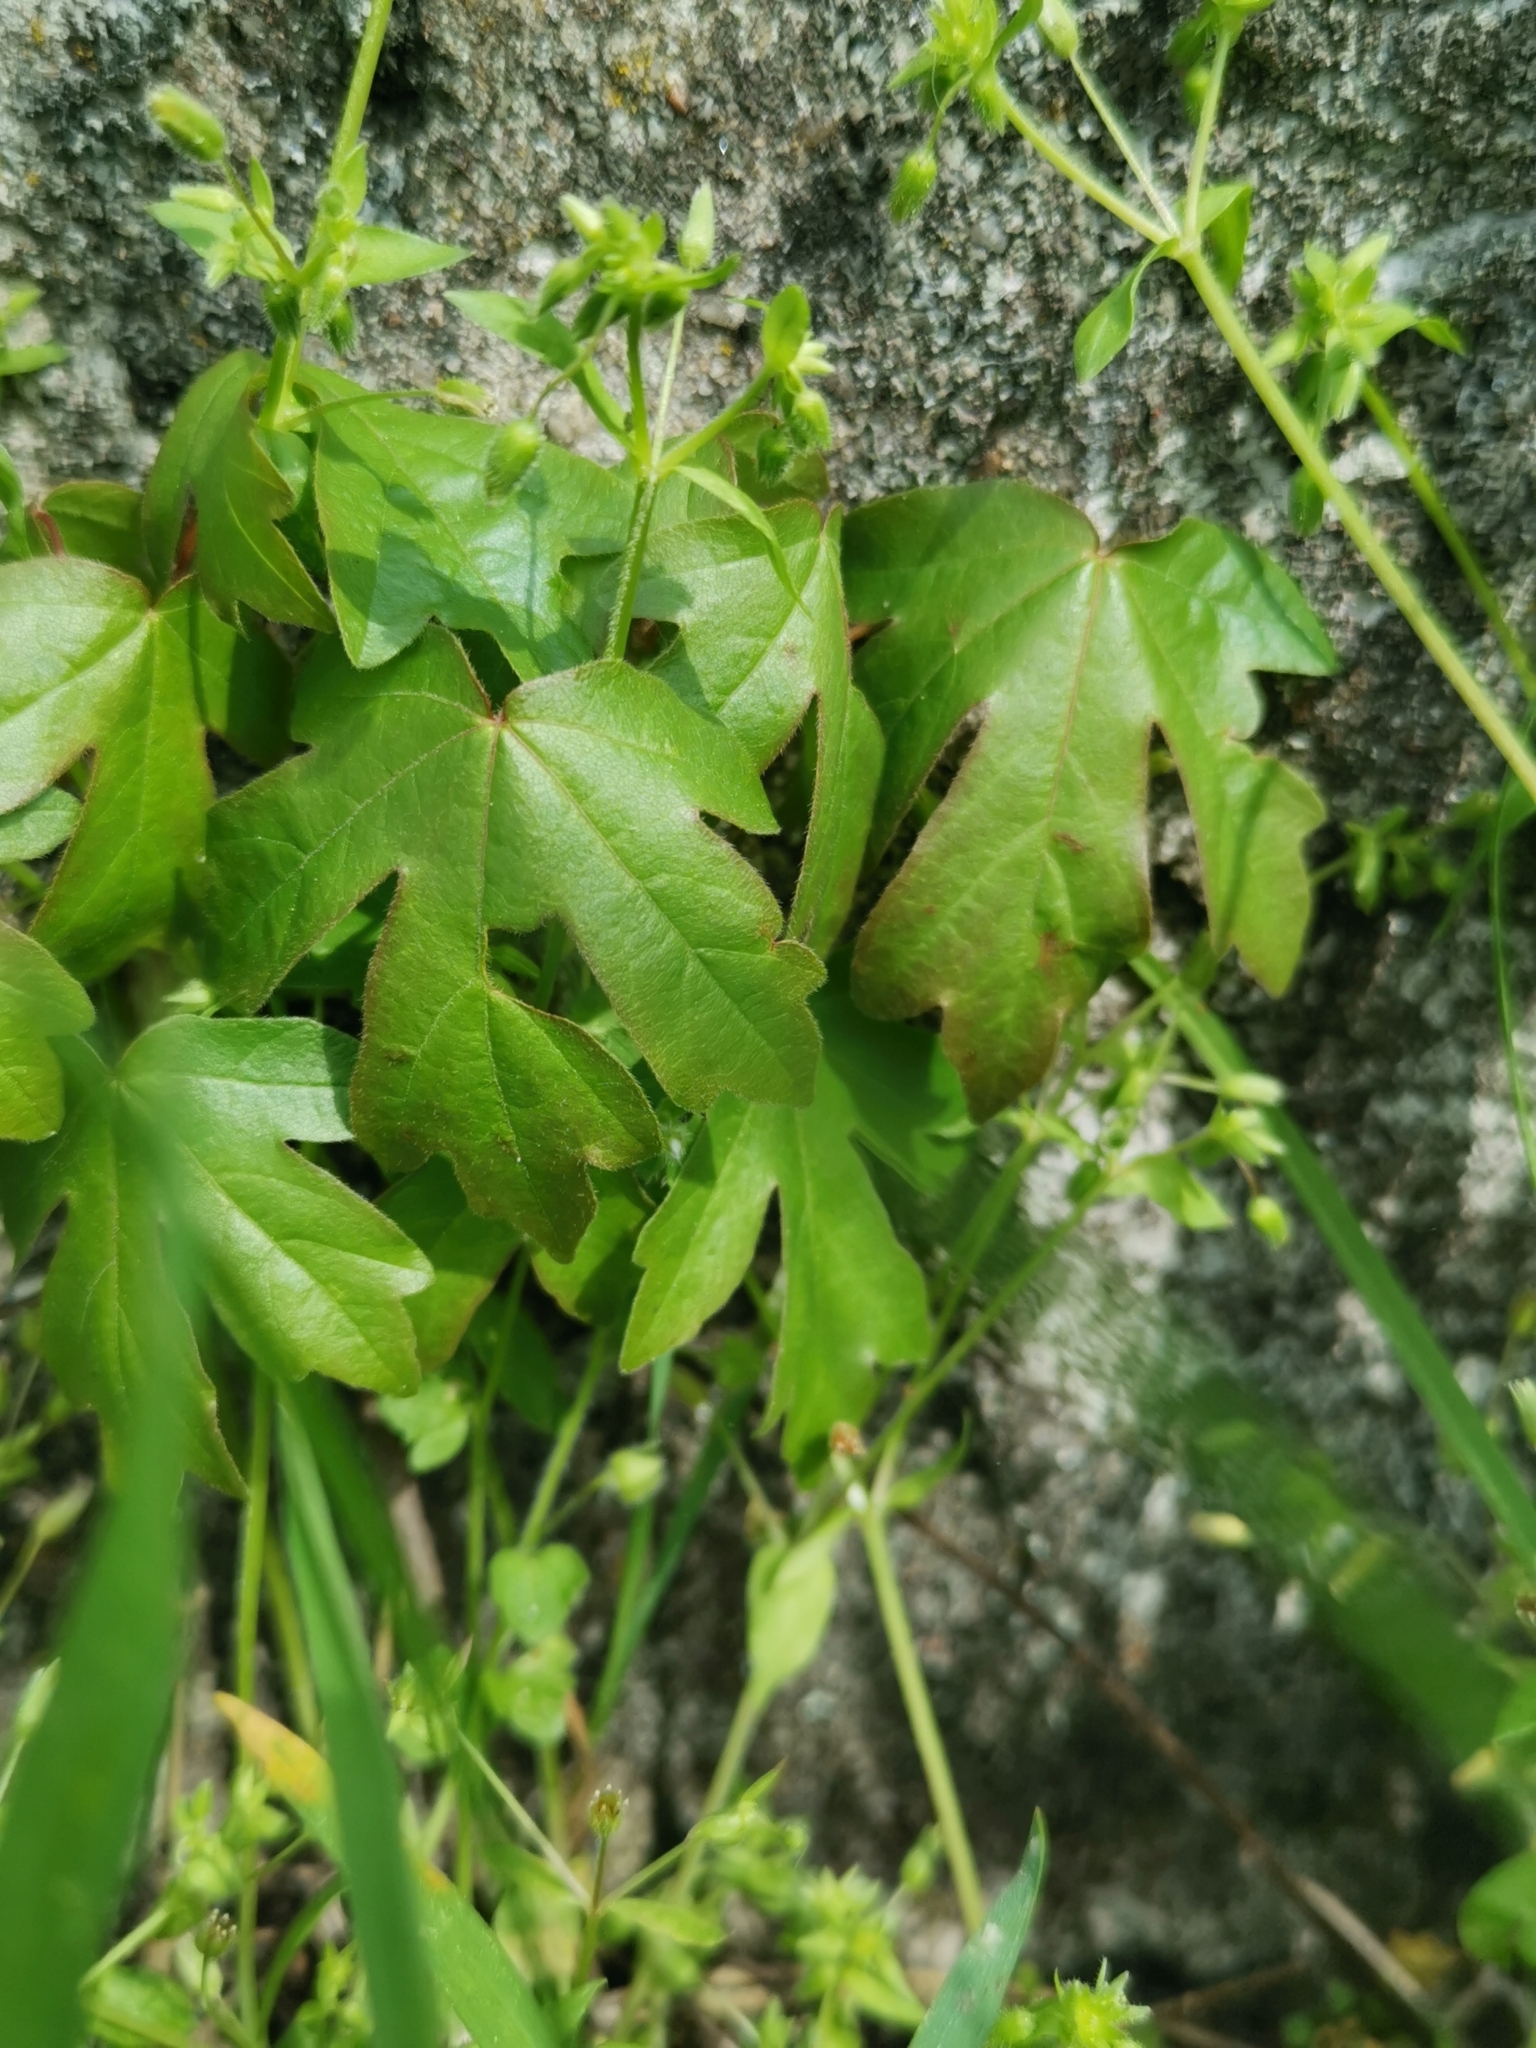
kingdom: Plantae
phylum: Tracheophyta
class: Magnoliopsida
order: Sapindales
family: Sapindaceae
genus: Acer
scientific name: Acer campestre
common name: Field maple
